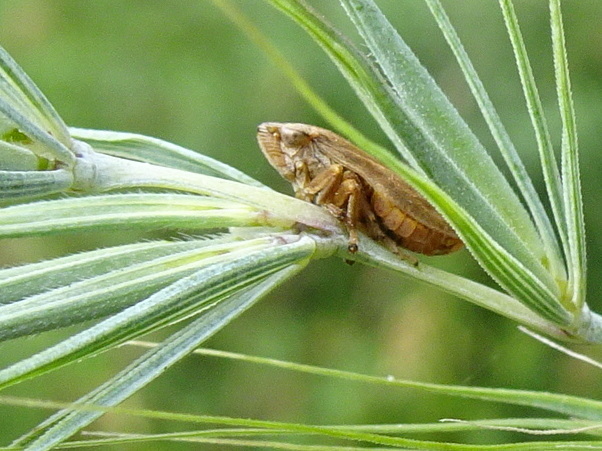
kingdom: Animalia
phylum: Arthropoda
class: Insecta
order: Hemiptera
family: Aphrophoridae
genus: Philaenus
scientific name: Philaenus spumarius
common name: Meadow spittlebug
